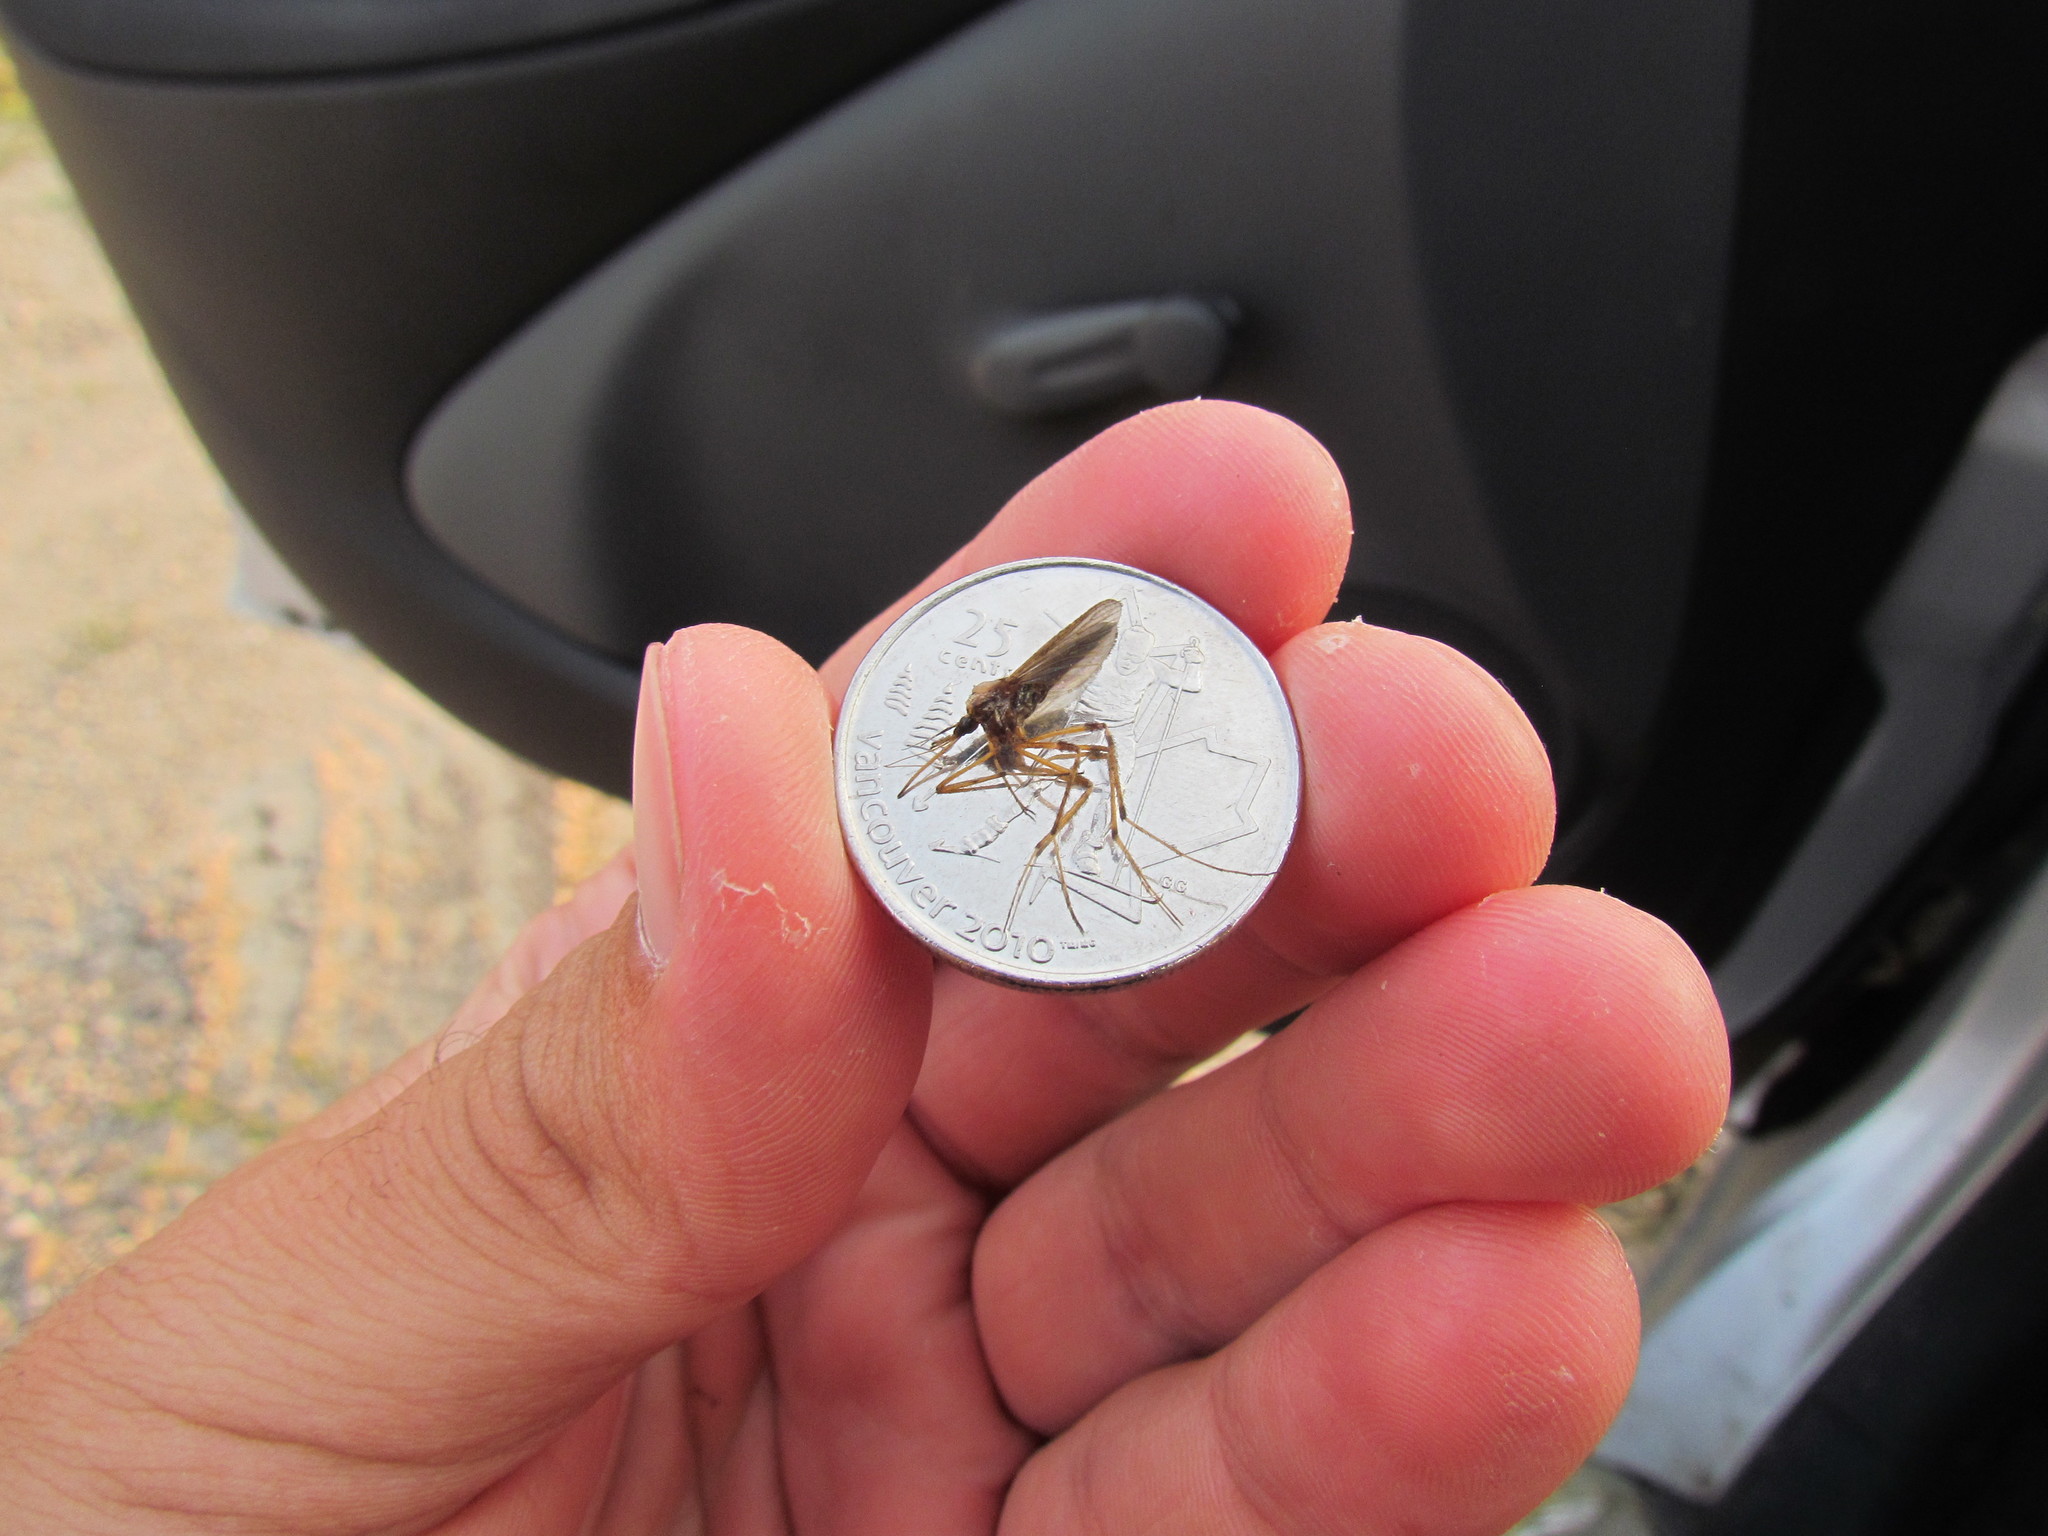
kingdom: Animalia
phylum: Arthropoda
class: Insecta
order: Diptera
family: Culicidae
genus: Psorophora
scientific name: Psorophora ciliata
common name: Gallinipper
